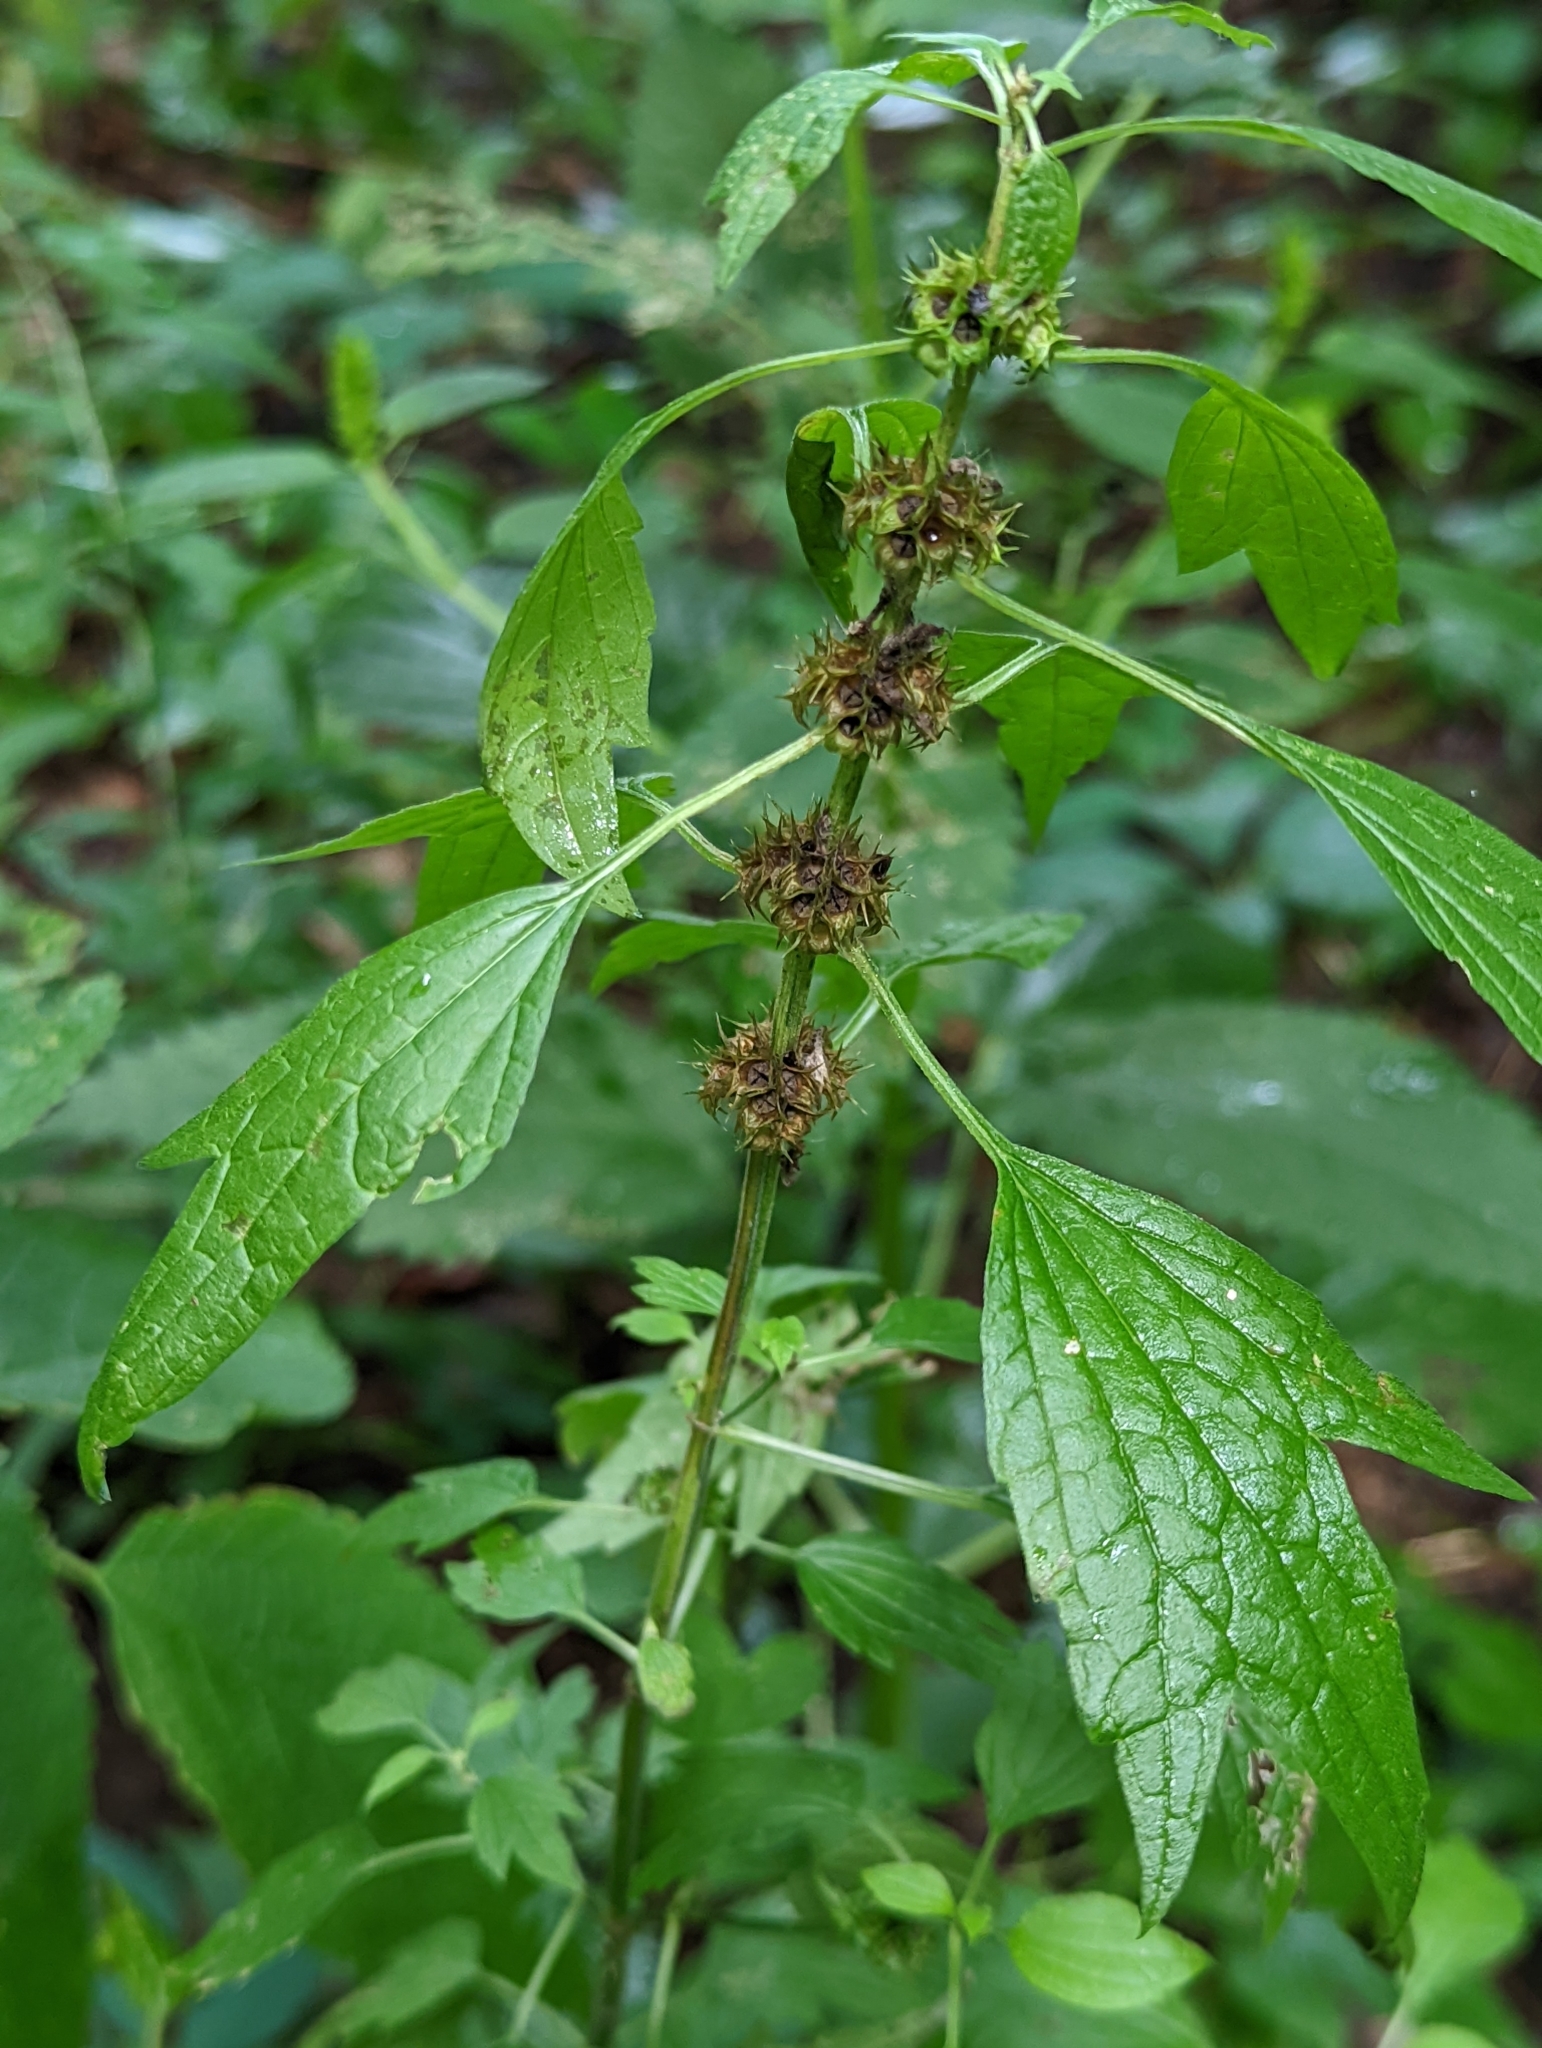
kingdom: Plantae
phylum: Tracheophyta
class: Magnoliopsida
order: Lamiales
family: Lamiaceae
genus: Leonurus
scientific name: Leonurus cardiaca
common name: Motherwort
